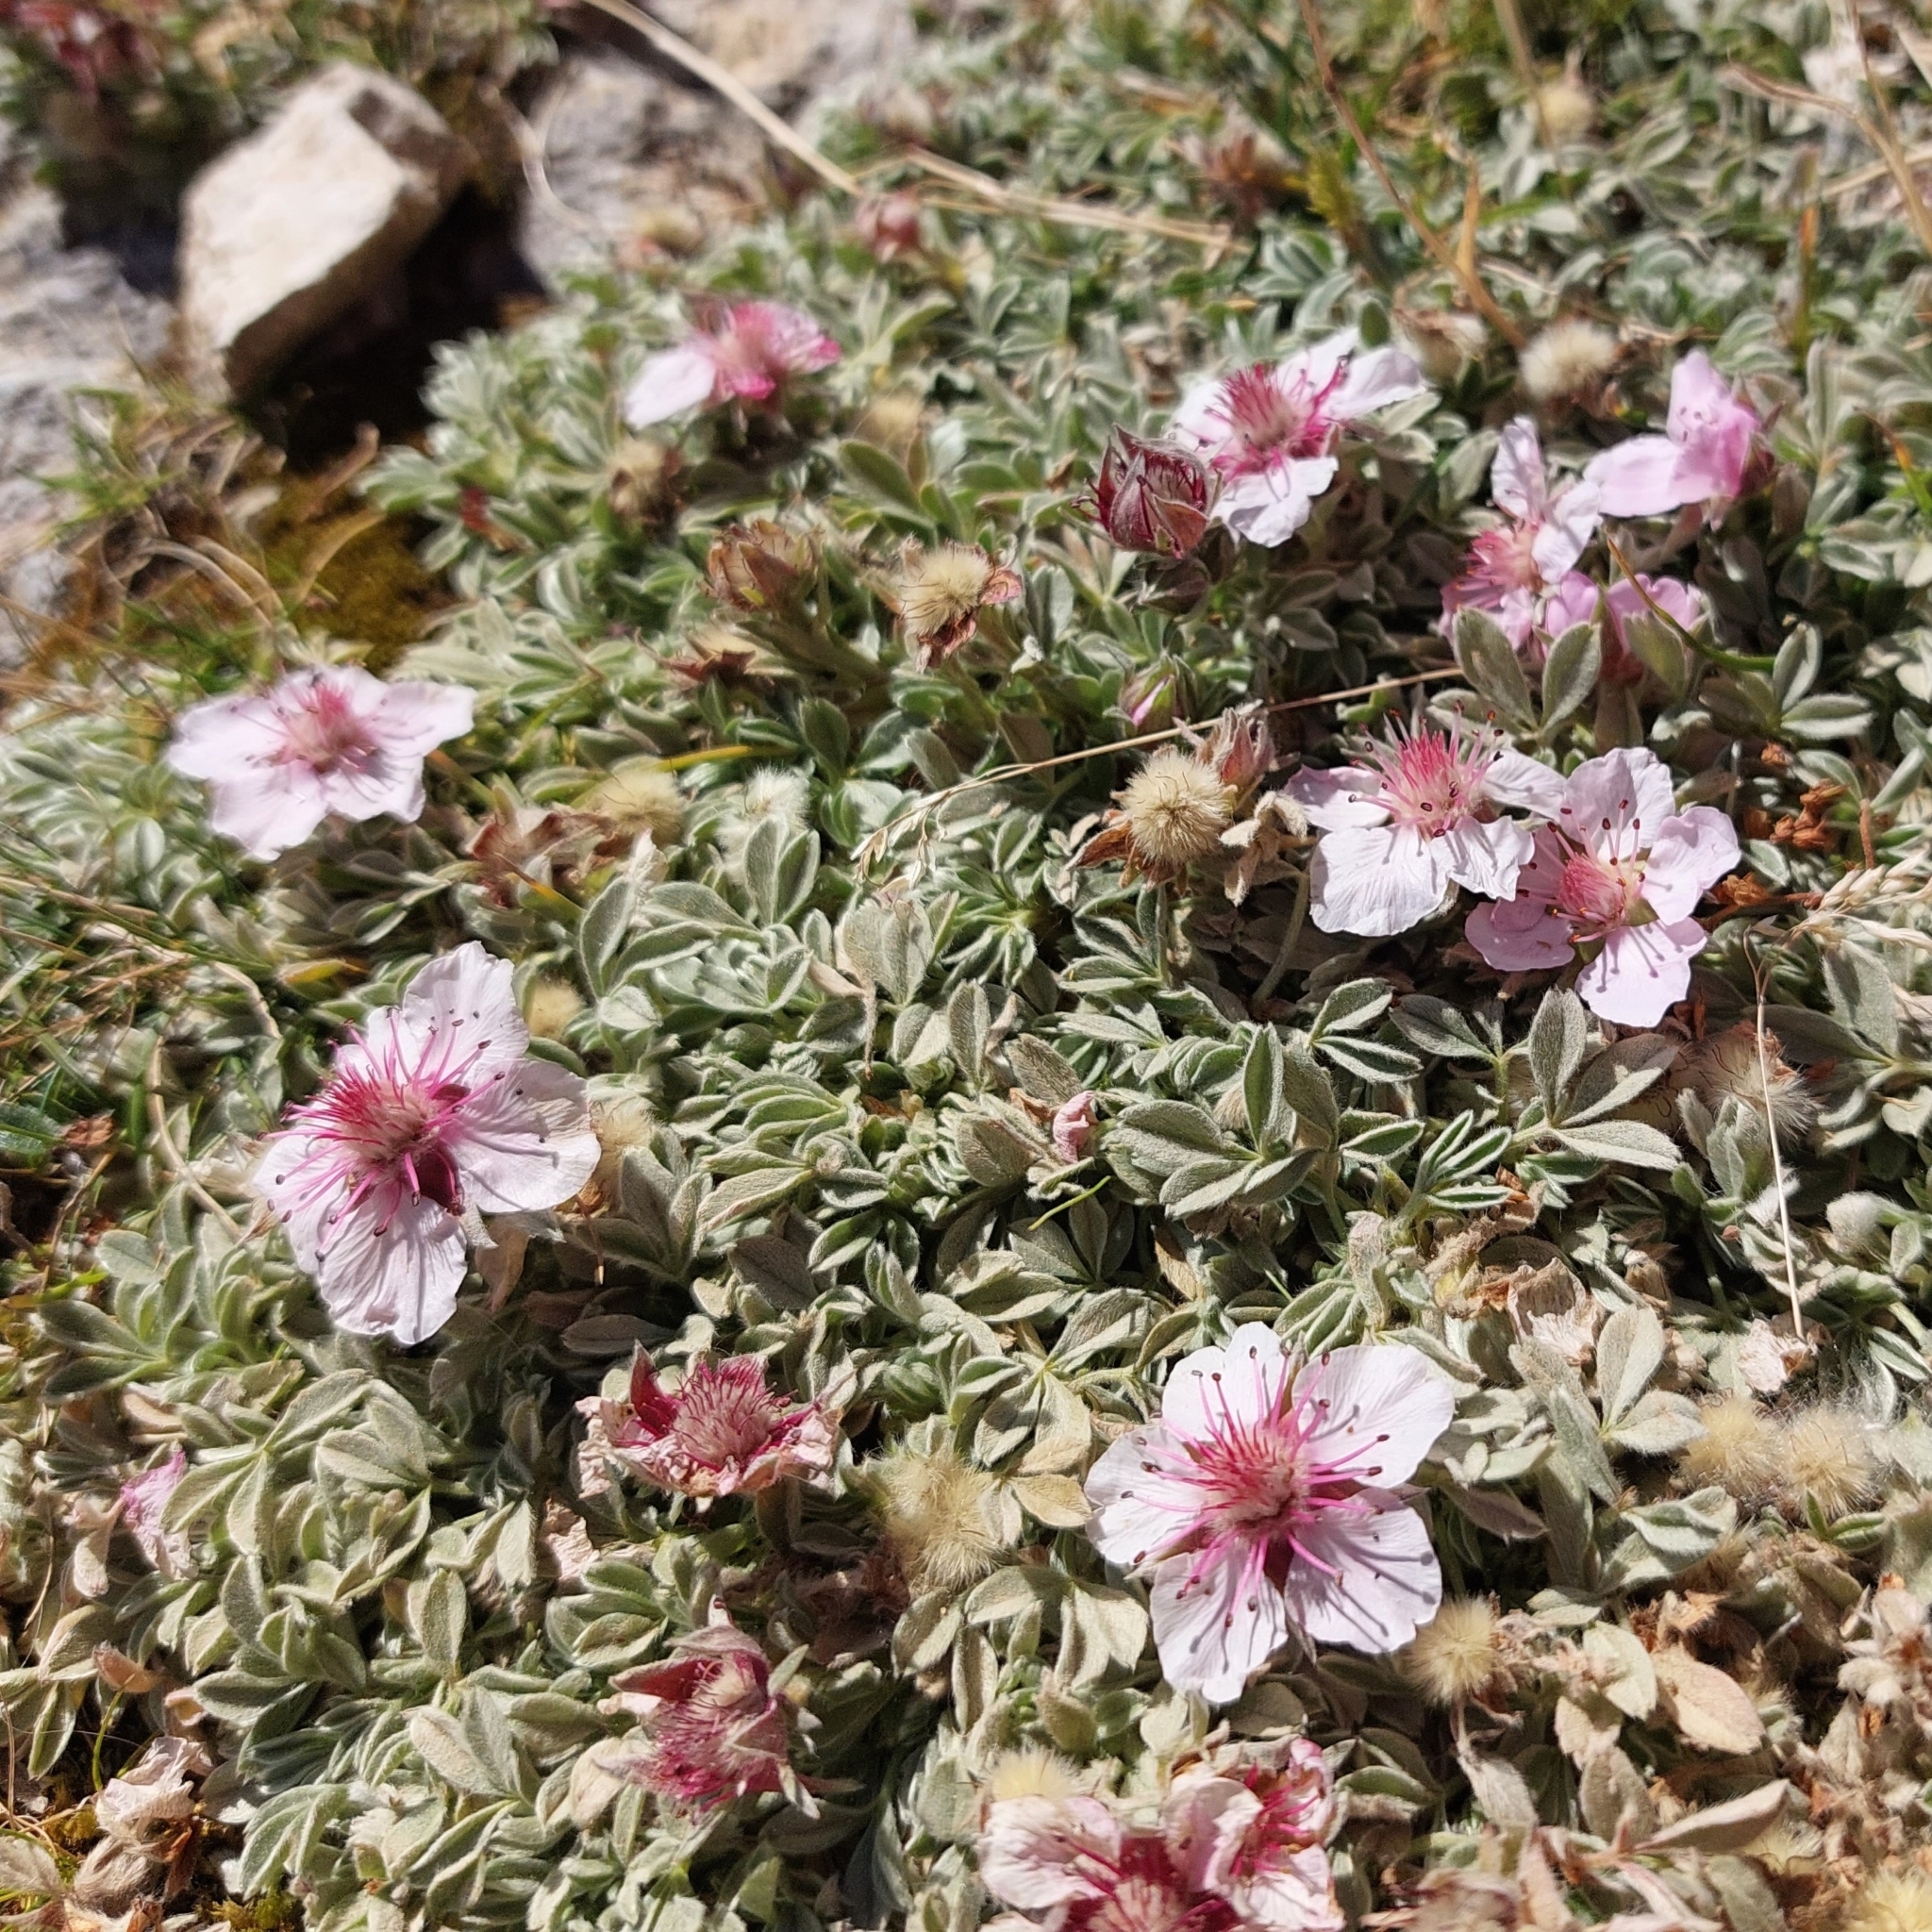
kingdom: Plantae
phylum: Tracheophyta
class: Magnoliopsida
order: Rosales
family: Rosaceae
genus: Potentilla
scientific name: Potentilla nitida
